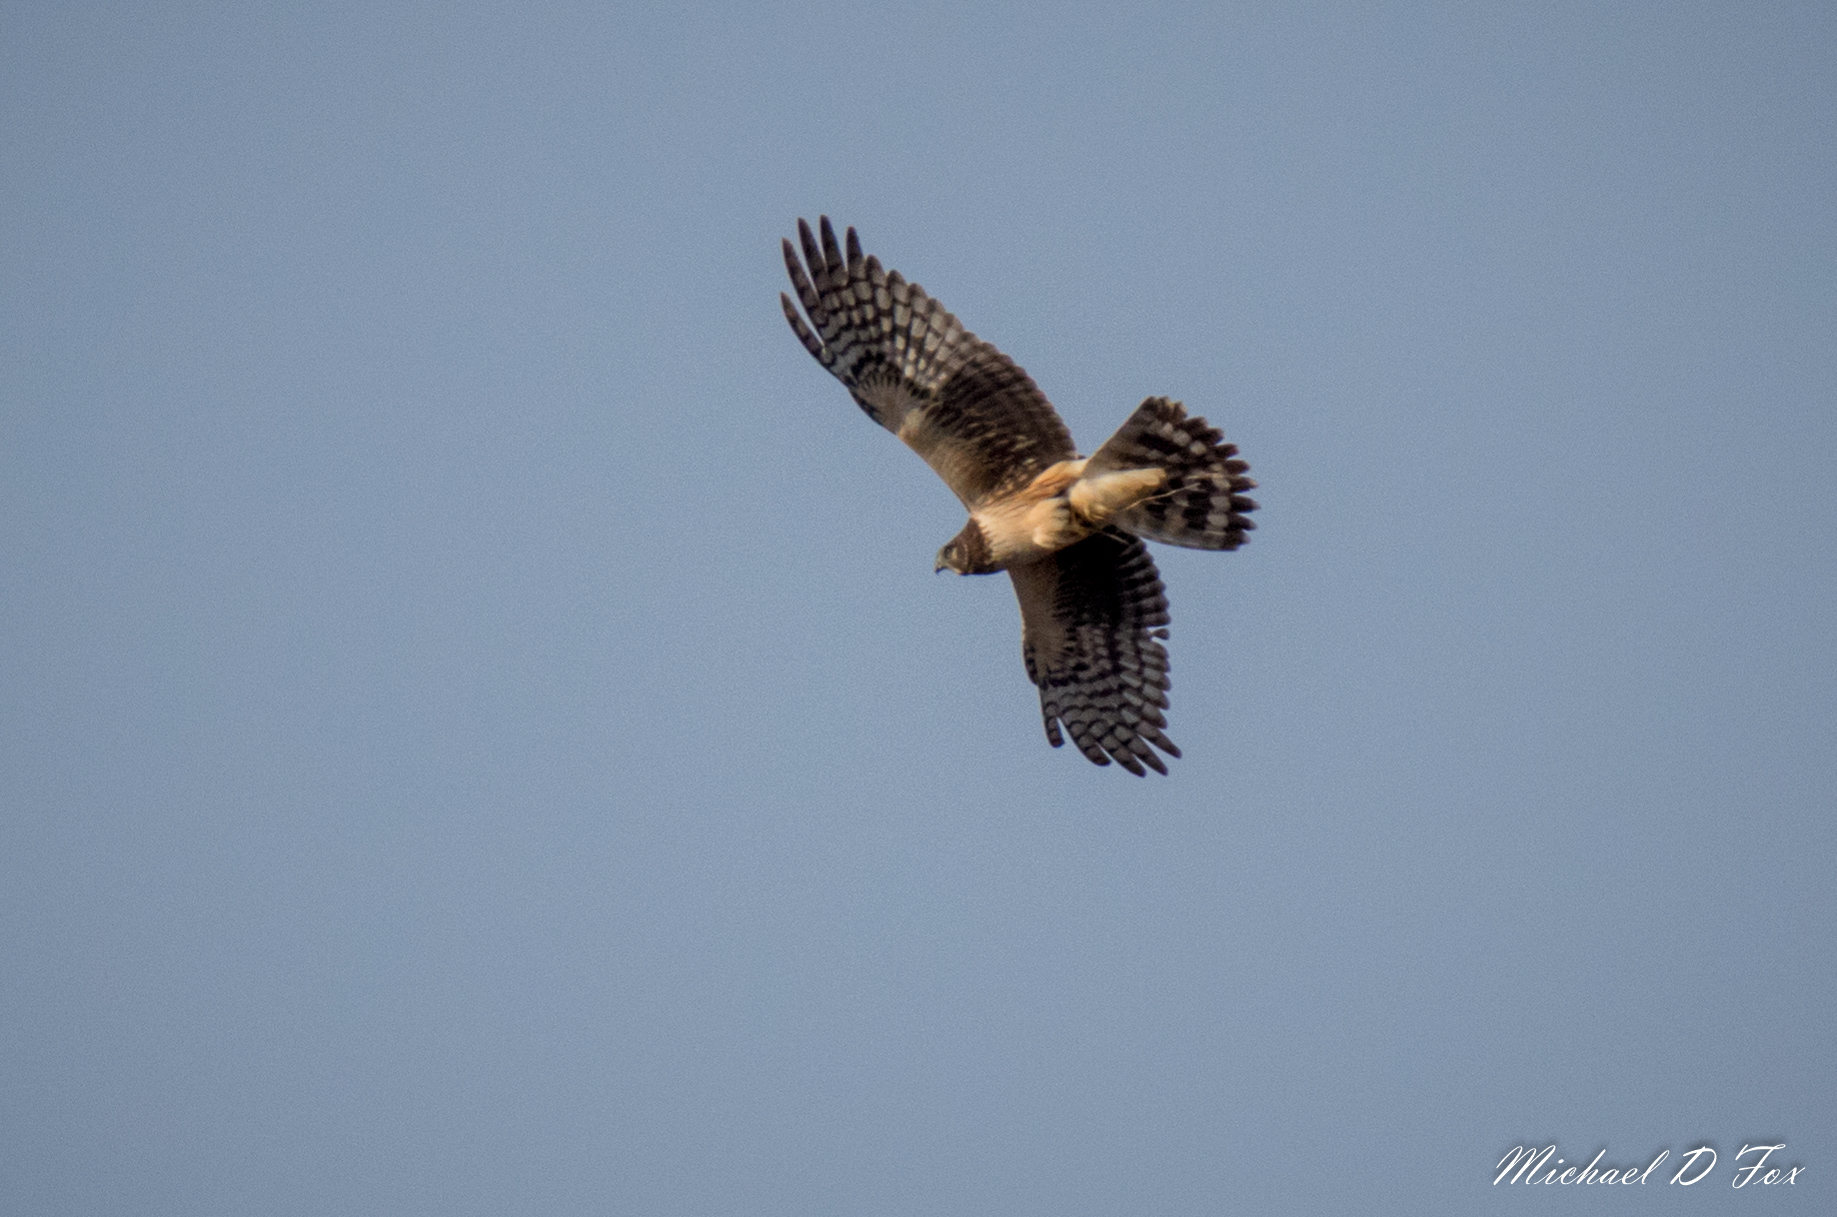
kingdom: Animalia
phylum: Chordata
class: Aves
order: Accipitriformes
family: Accipitridae
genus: Circus
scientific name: Circus cyaneus
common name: Hen harrier
